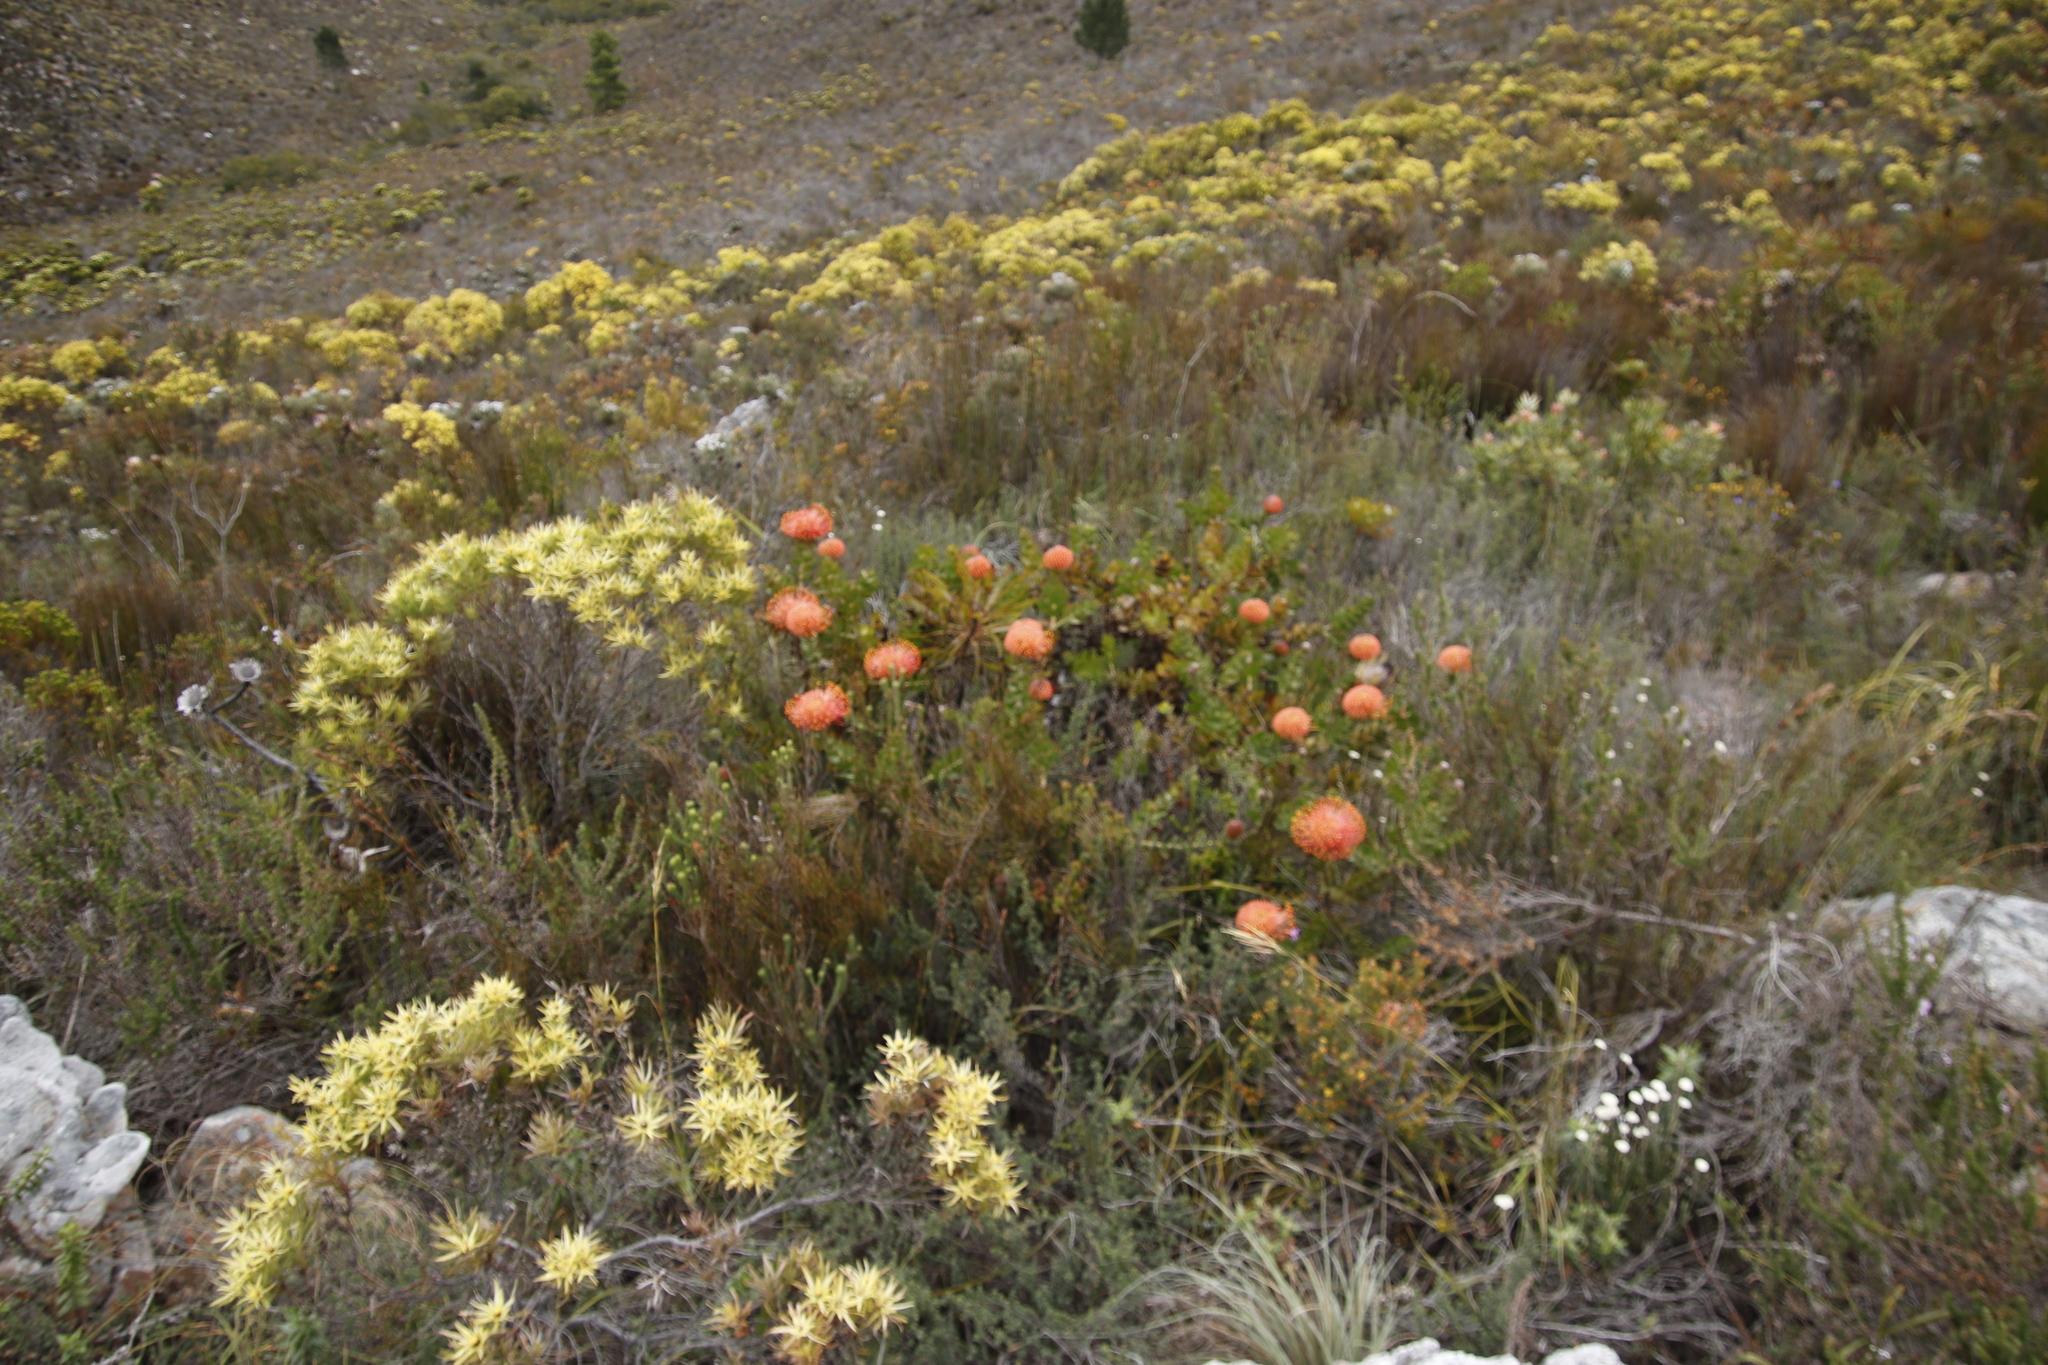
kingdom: Plantae
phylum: Tracheophyta
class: Magnoliopsida
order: Proteales
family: Proteaceae
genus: Leucospermum
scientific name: Leucospermum cordifolium
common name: Red pincushion-protea
